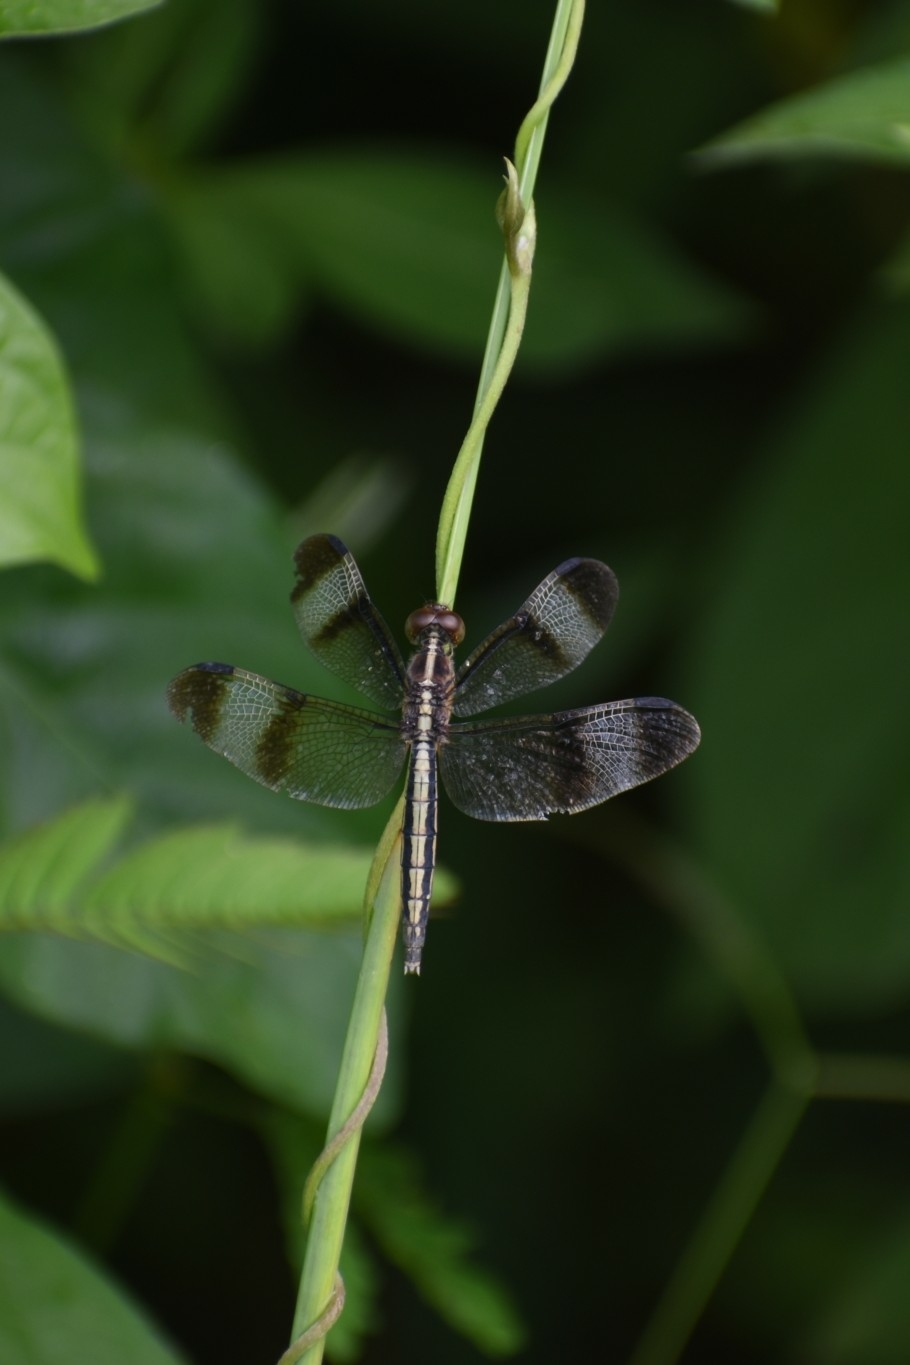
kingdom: Animalia
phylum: Arthropoda
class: Insecta
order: Odonata
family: Libellulidae
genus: Neurothemis
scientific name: Neurothemis tullia
